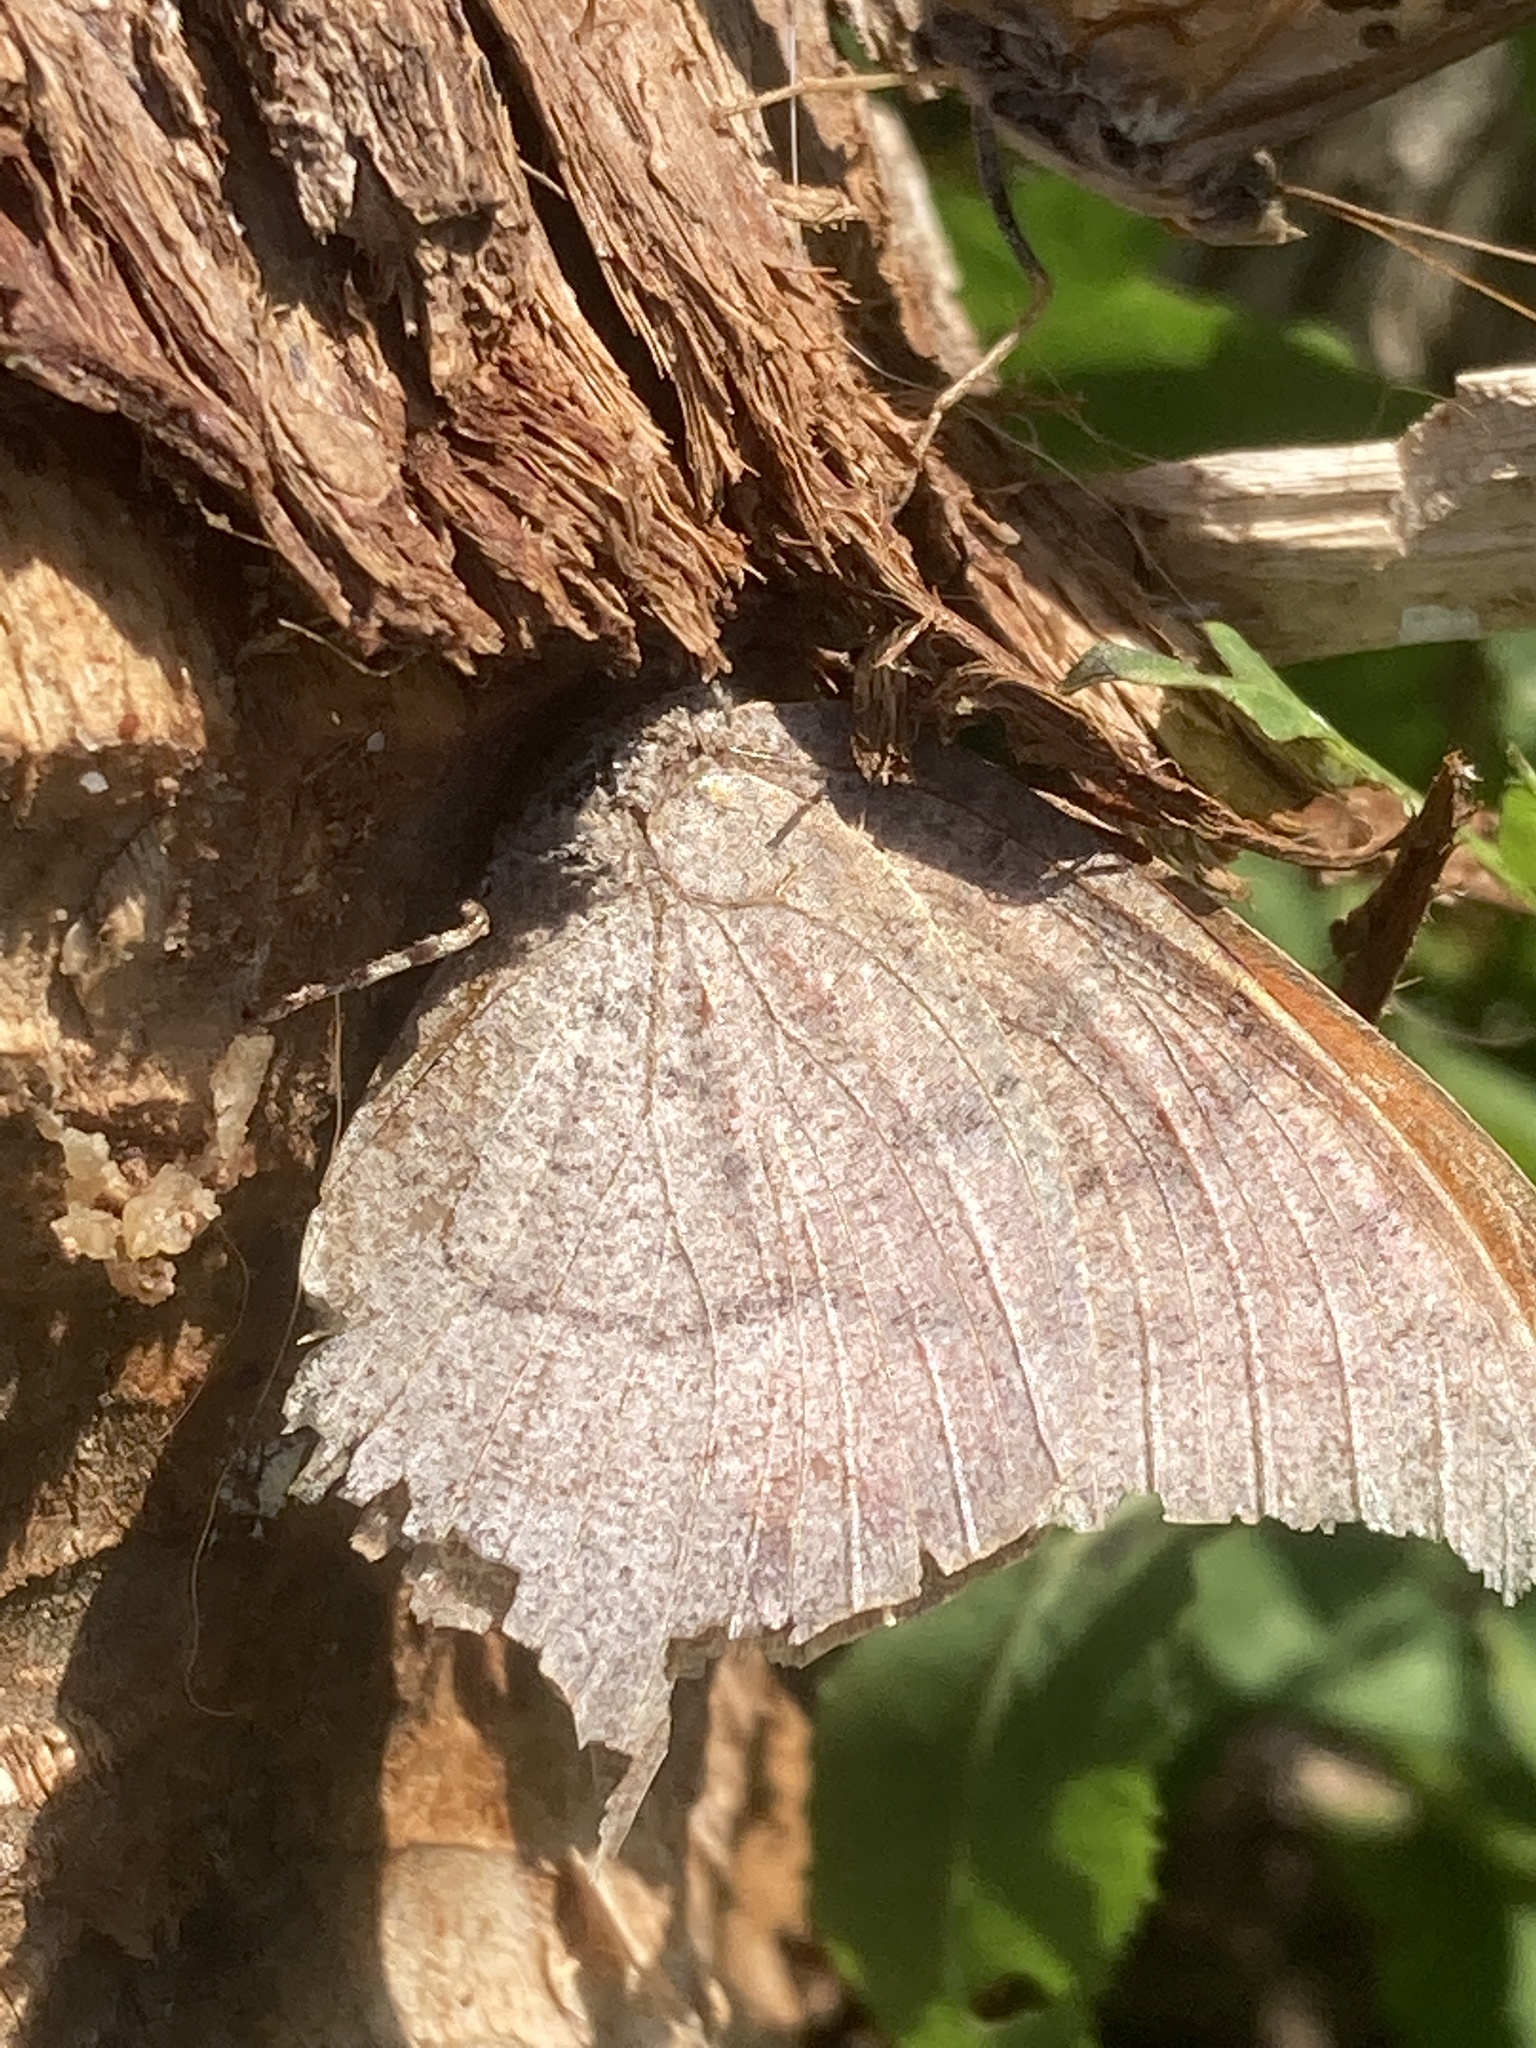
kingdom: Animalia
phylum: Arthropoda
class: Insecta
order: Lepidoptera
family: Nymphalidae
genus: Anaea
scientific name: Anaea andria
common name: Goatweed leafwing
